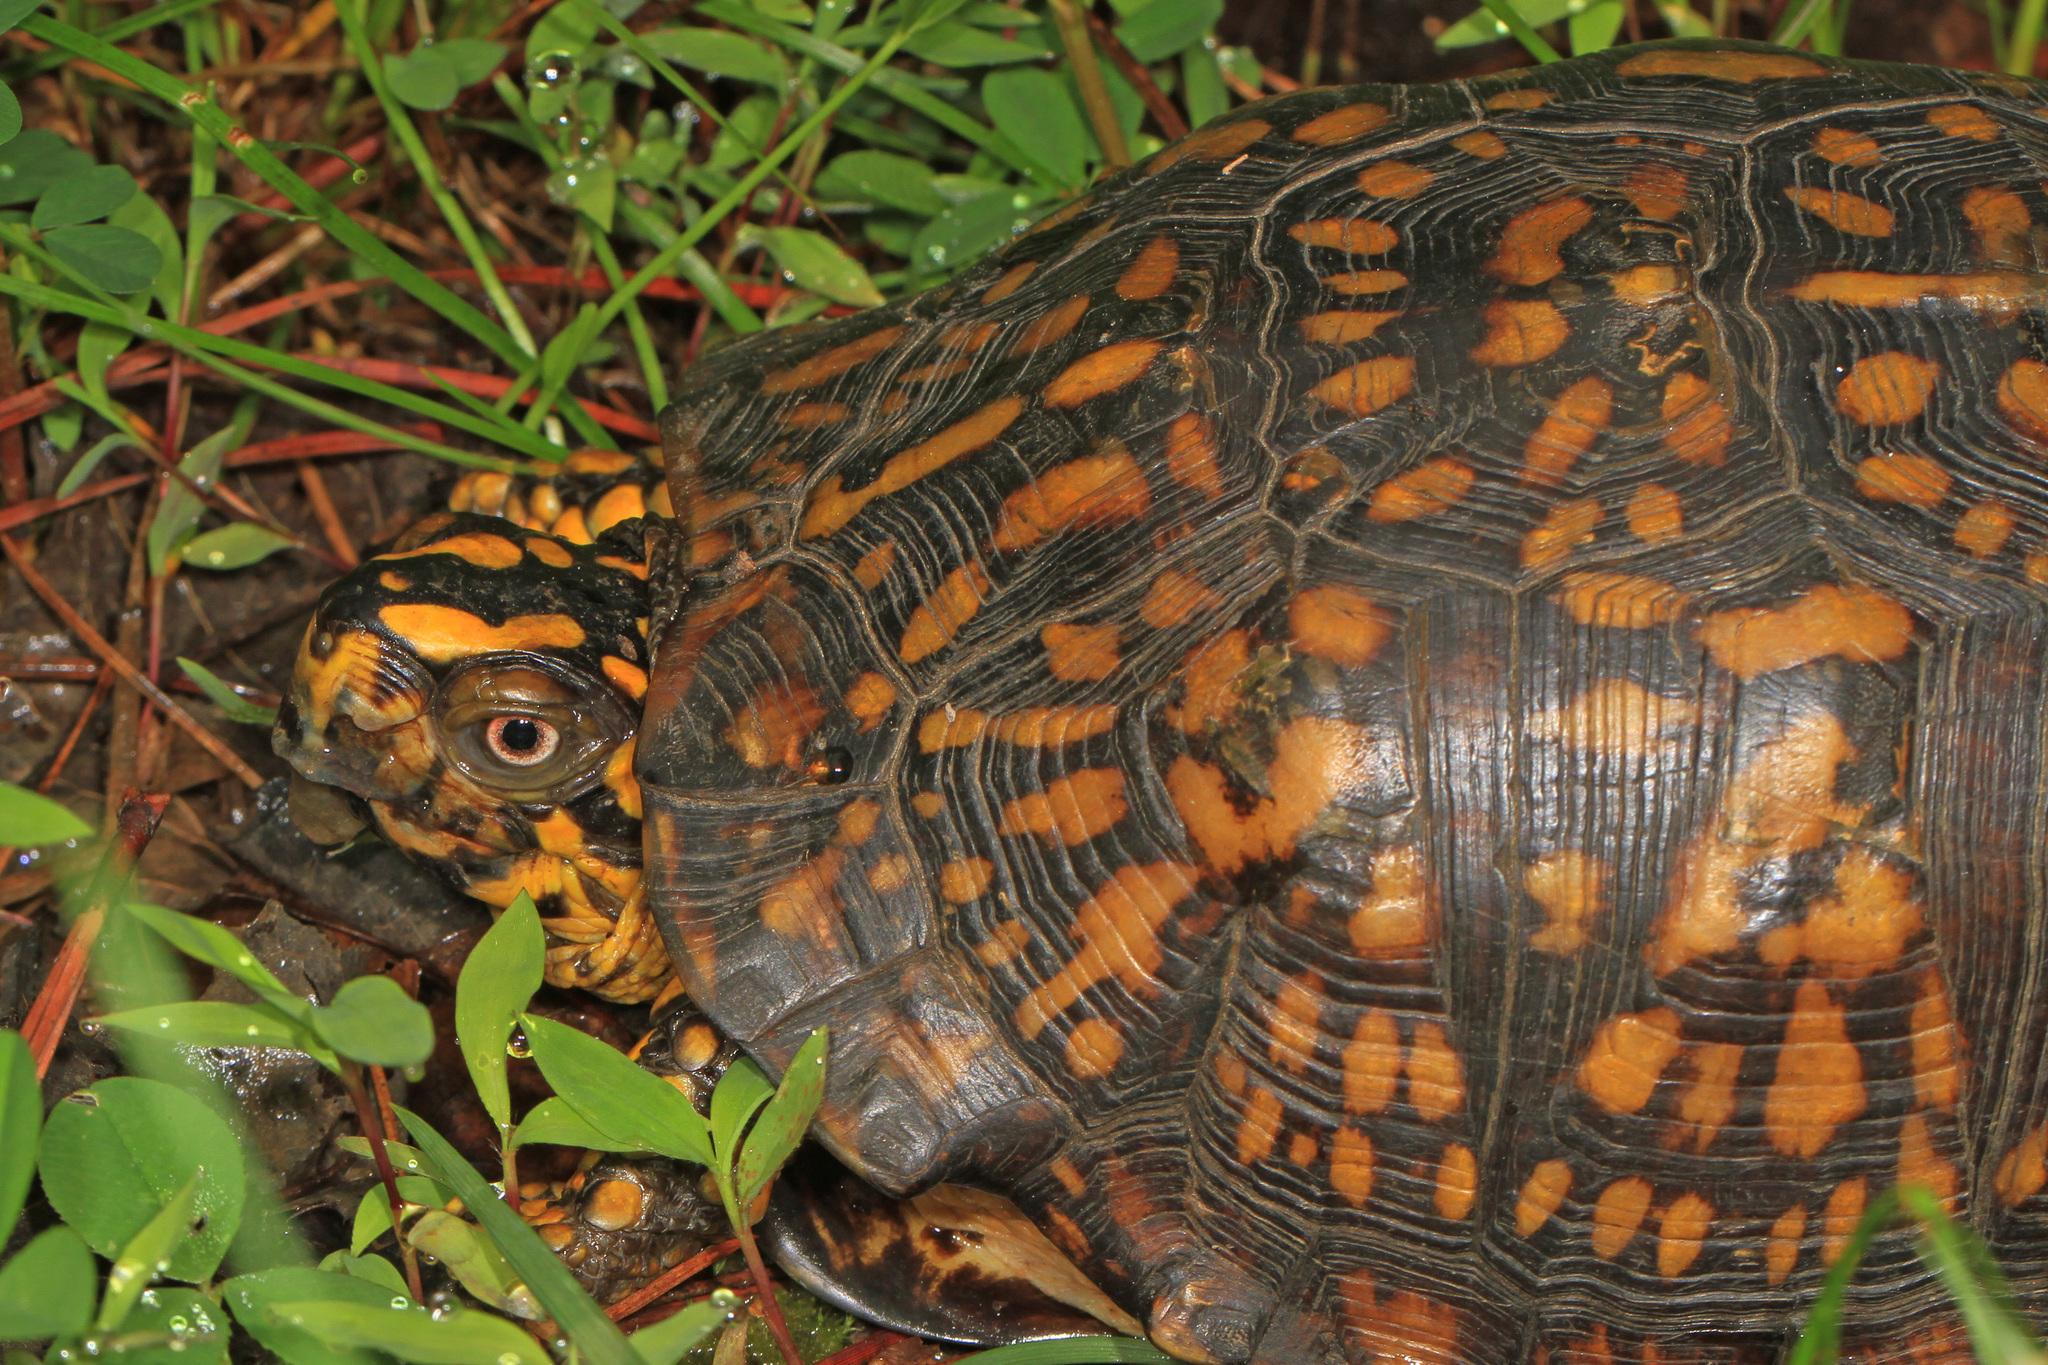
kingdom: Animalia
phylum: Chordata
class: Testudines
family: Emydidae
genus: Terrapene
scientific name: Terrapene carolina
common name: Common box turtle
